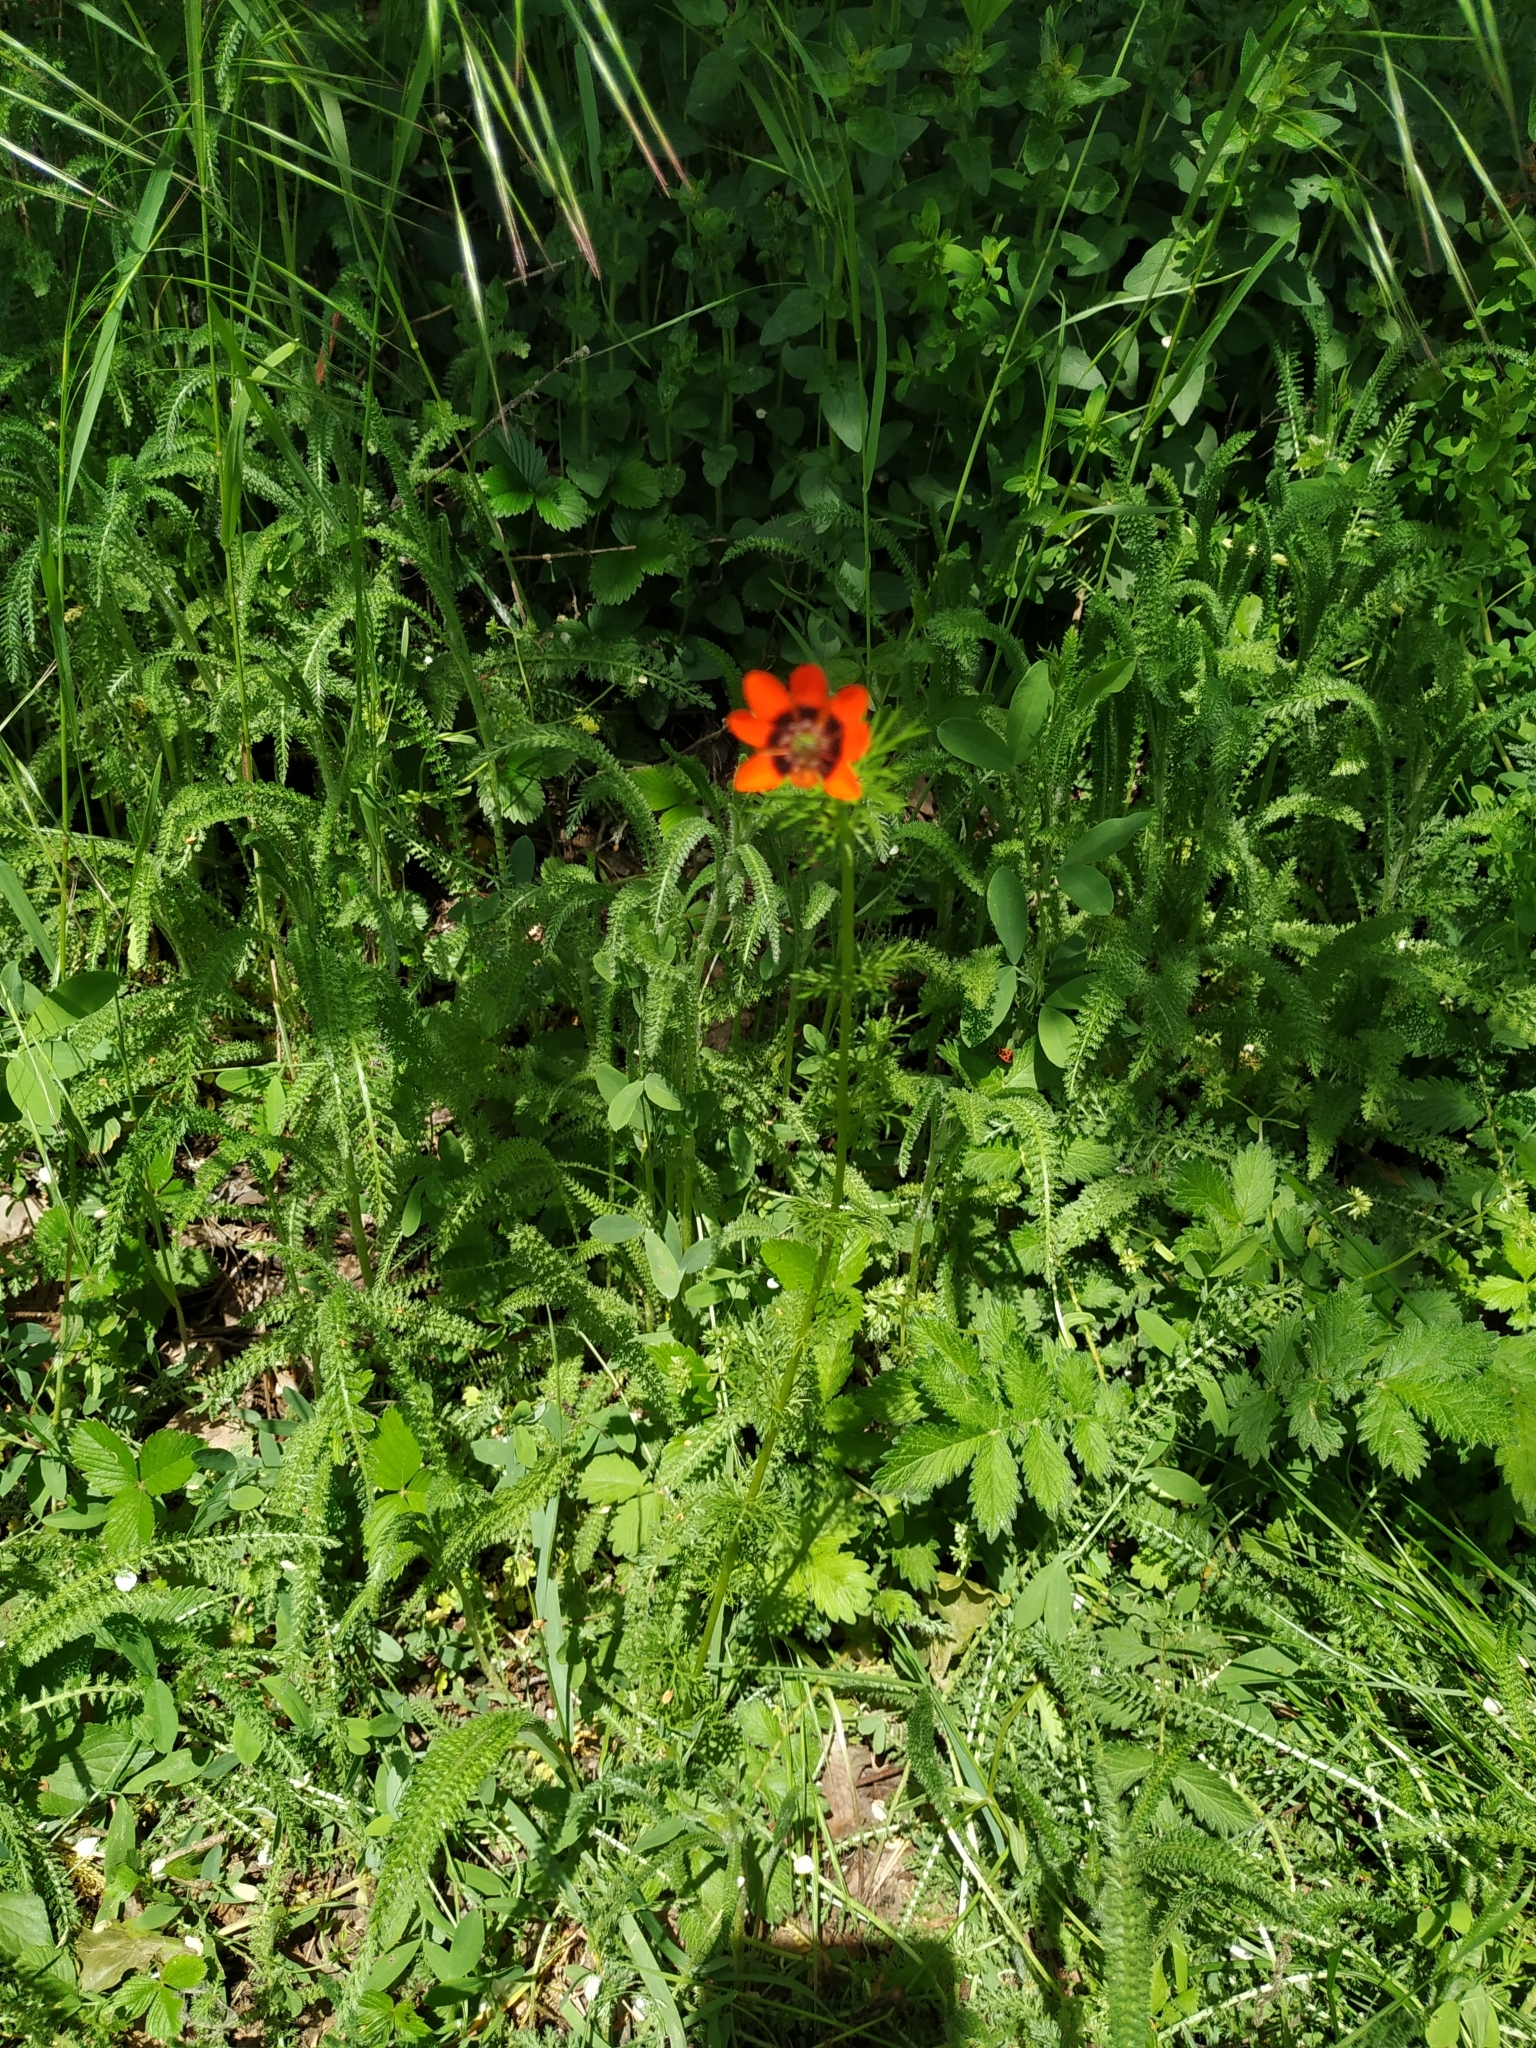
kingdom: Plantae
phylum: Tracheophyta
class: Magnoliopsida
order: Ranunculales
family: Ranunculaceae
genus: Adonis
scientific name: Adonis aestivalis
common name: Summer pheasant's-eye
